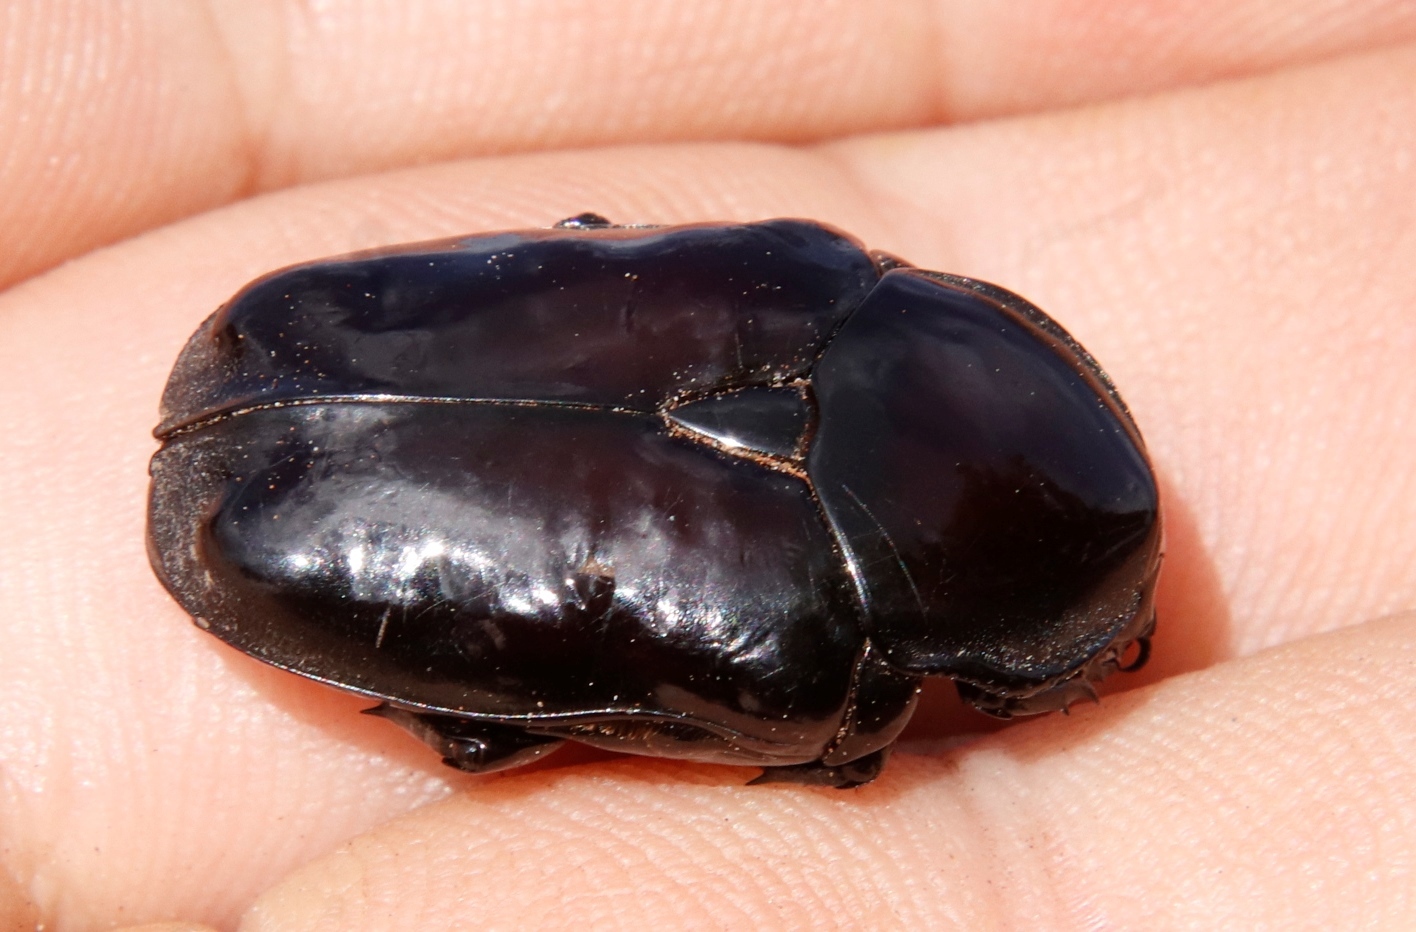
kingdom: Animalia
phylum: Arthropoda
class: Insecta
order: Coleoptera
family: Scarabaeidae
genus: Diplognatha
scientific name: Diplognatha gagates
